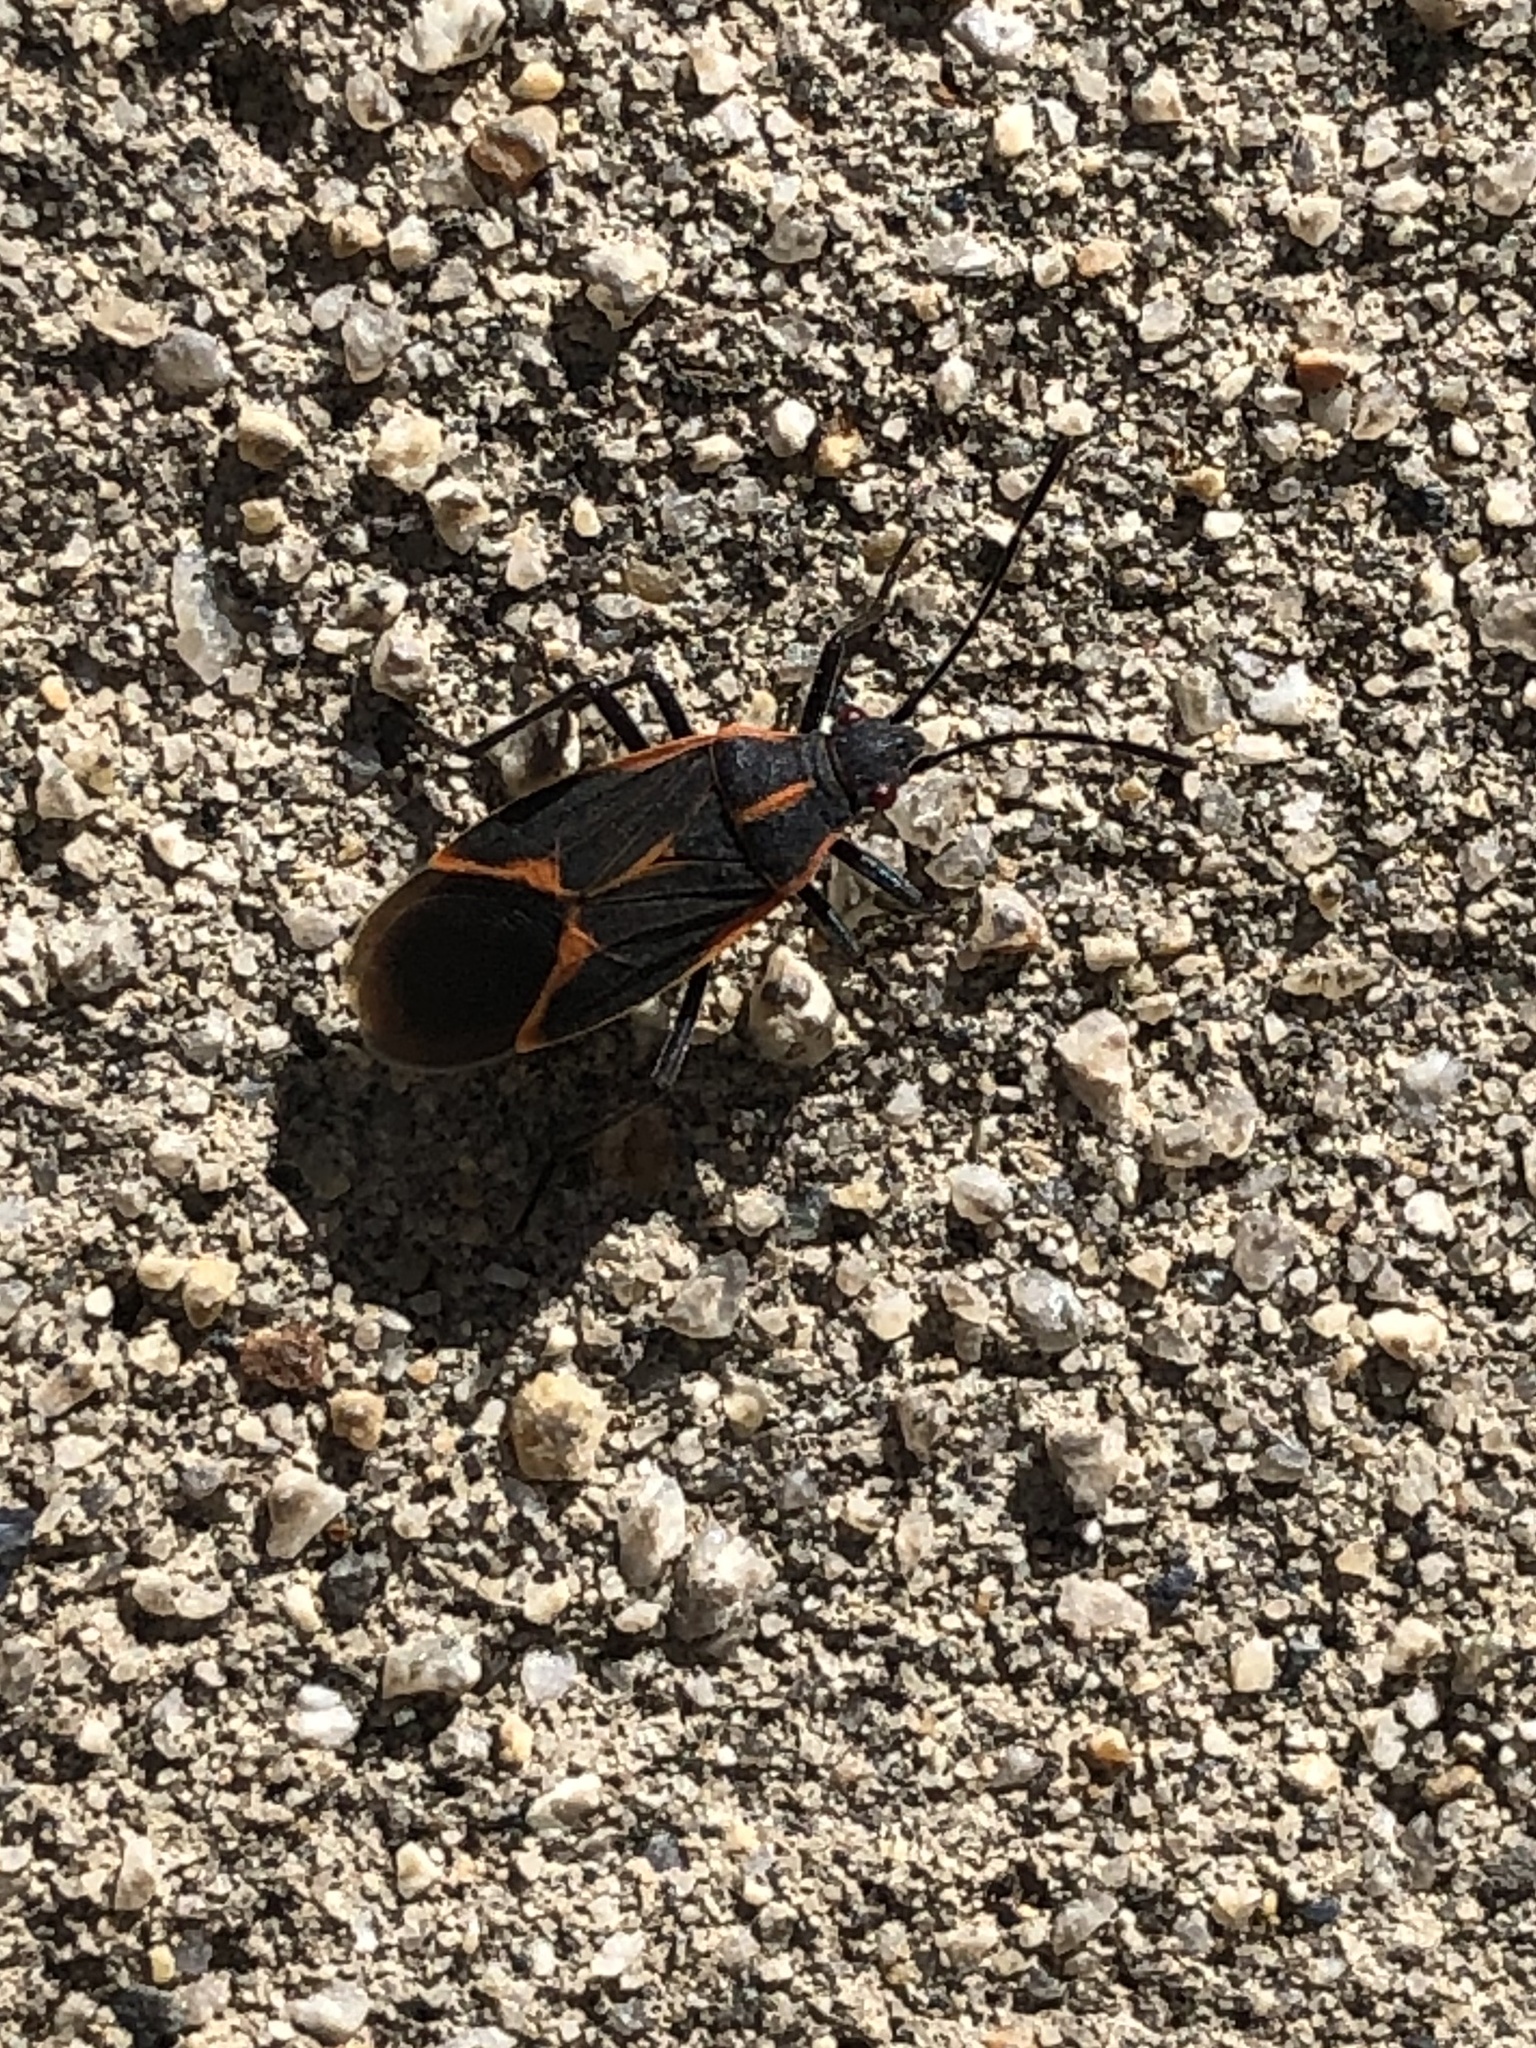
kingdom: Animalia
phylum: Arthropoda
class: Insecta
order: Hemiptera
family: Rhopalidae
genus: Boisea
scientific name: Boisea trivittata
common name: Boxelder bug
